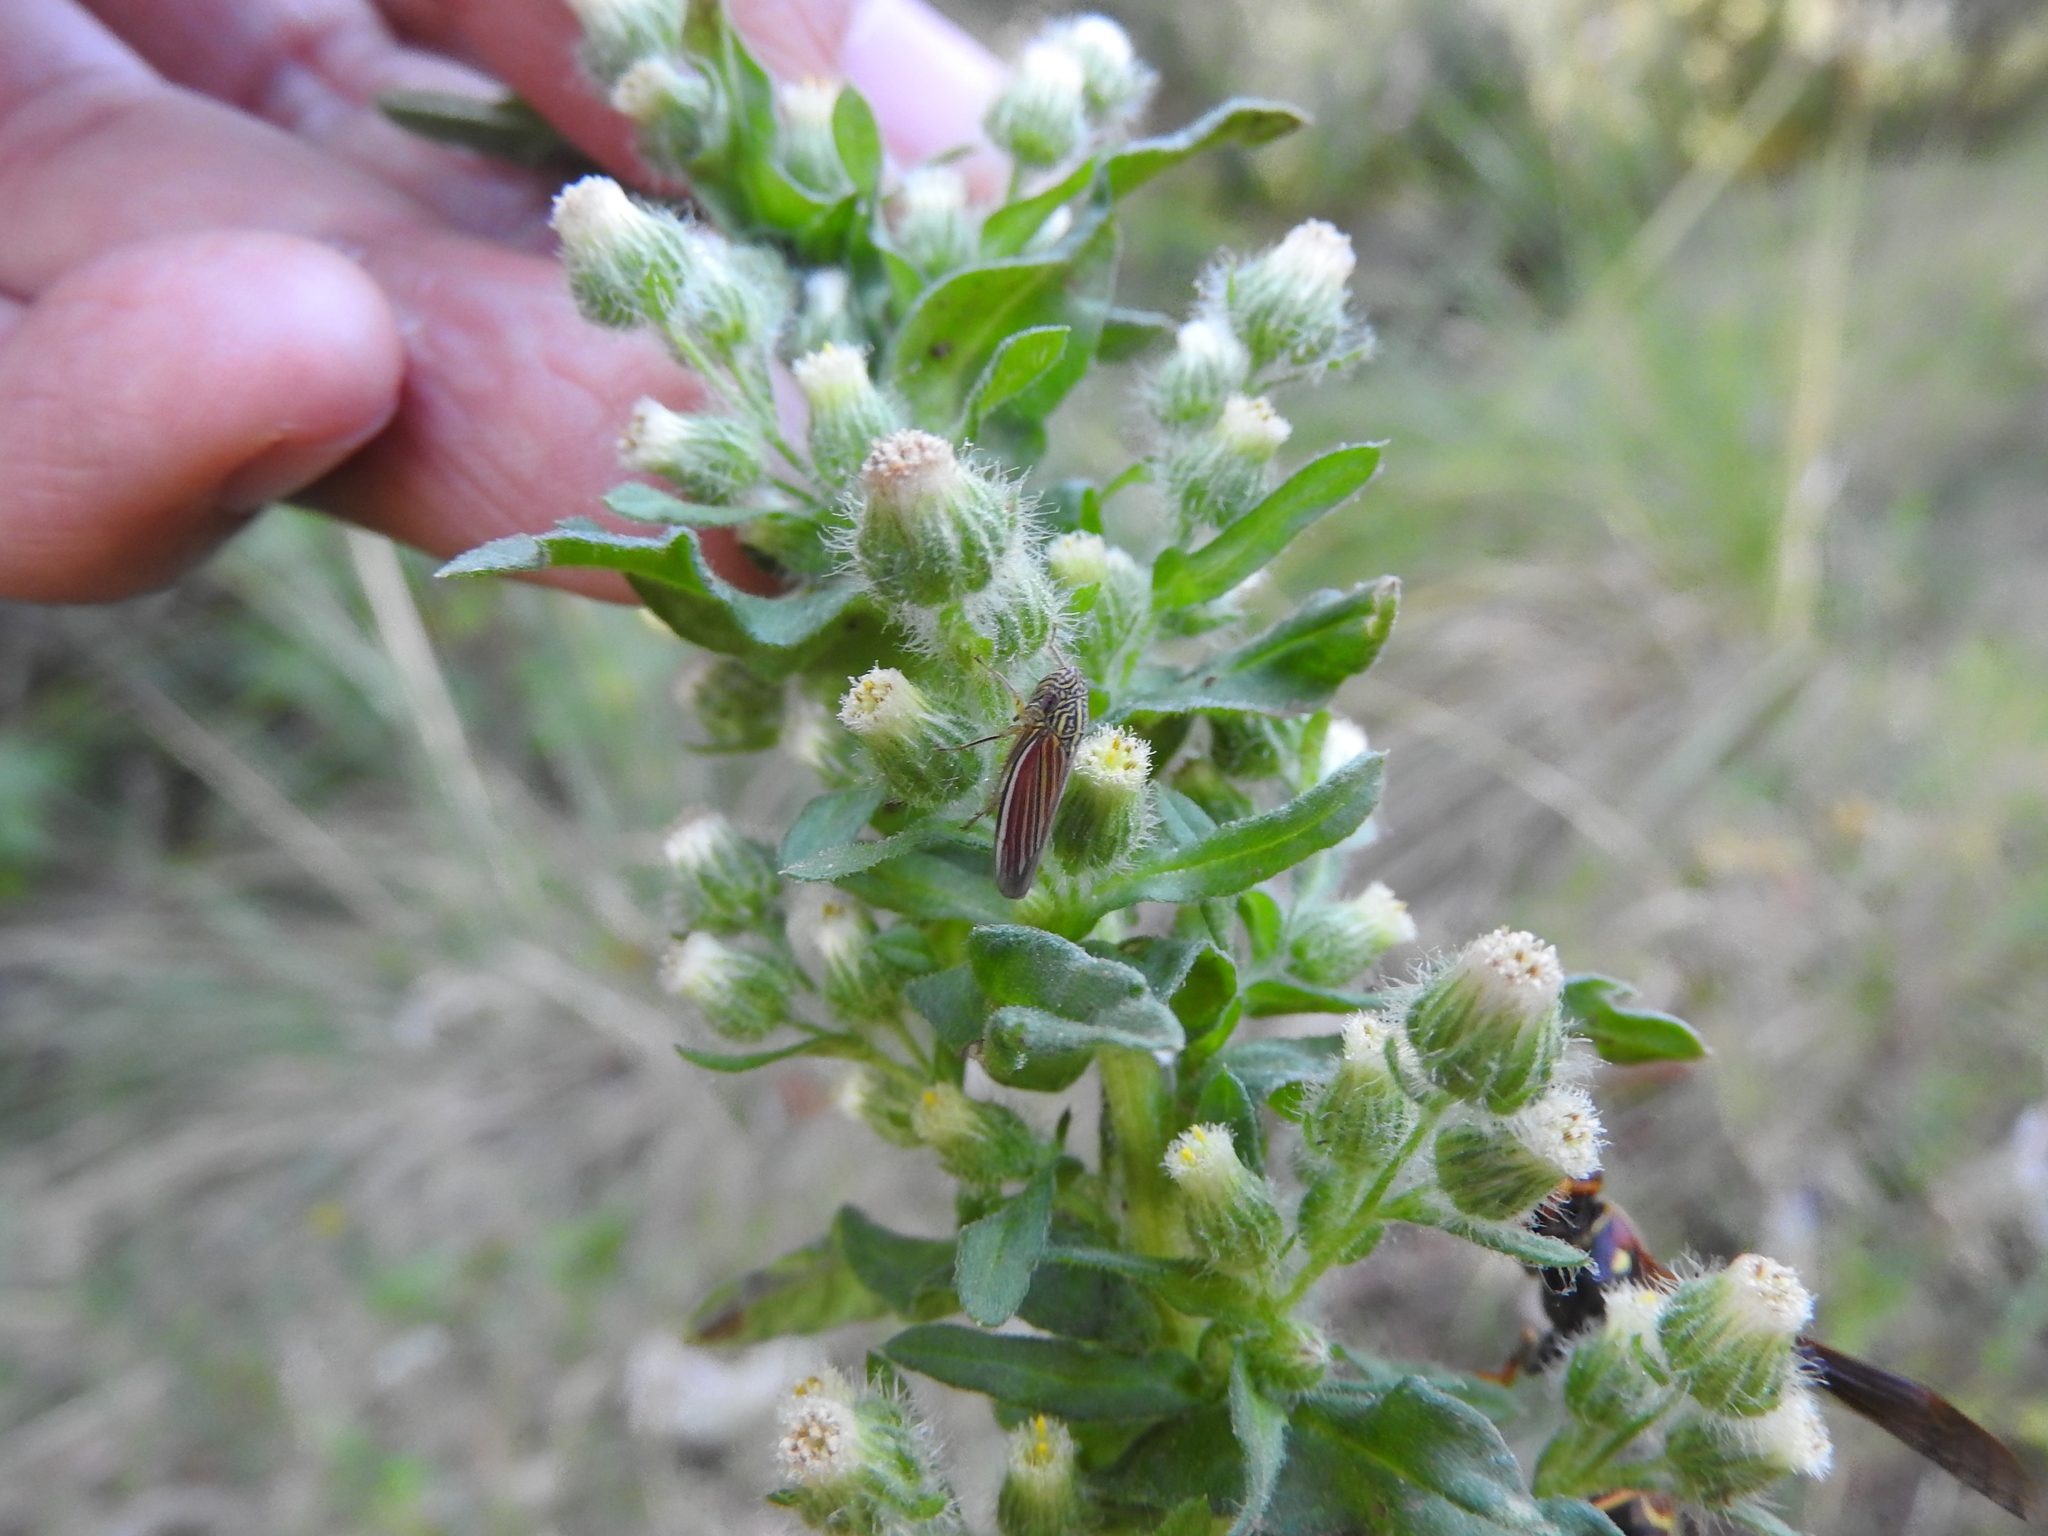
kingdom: Animalia
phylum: Arthropoda
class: Insecta
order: Hemiptera
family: Cicadellidae
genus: Apogonalia
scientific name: Apogonalia fraterna
